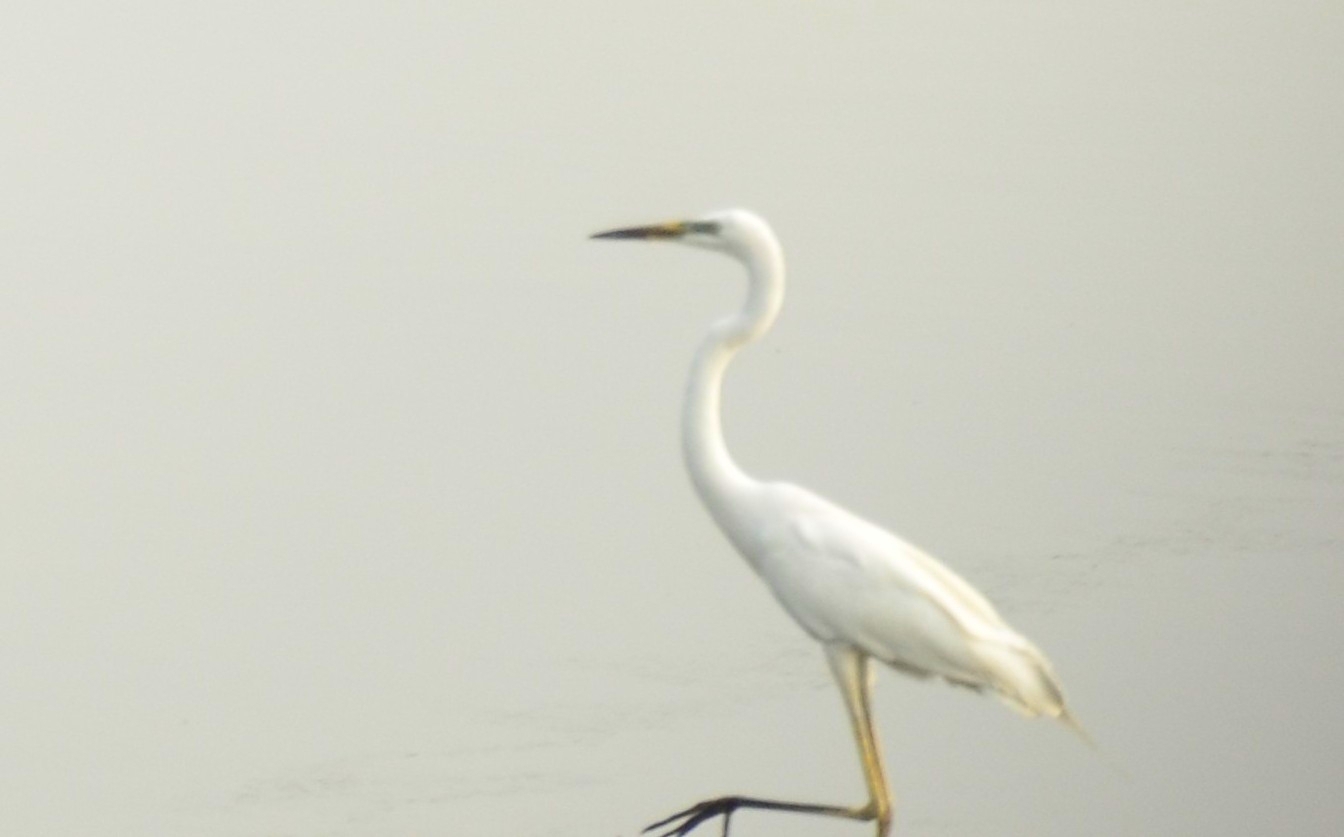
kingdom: Animalia
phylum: Chordata
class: Aves
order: Pelecaniformes
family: Ardeidae
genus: Ardea
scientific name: Ardea alba
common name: Great egret
